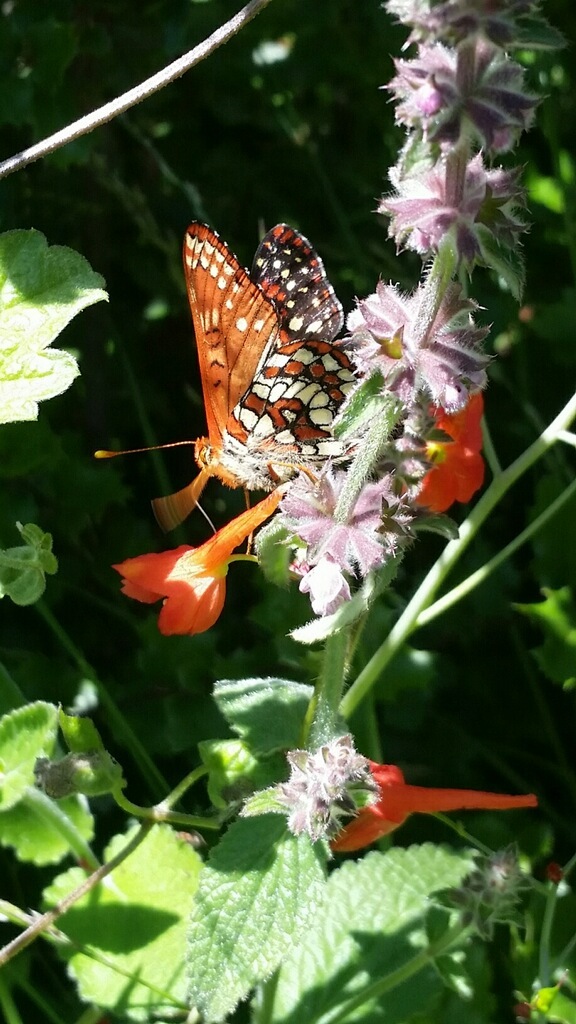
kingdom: Animalia
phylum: Arthropoda
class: Insecta
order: Lepidoptera
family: Nymphalidae
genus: Occidryas
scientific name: Occidryas chalcedona
